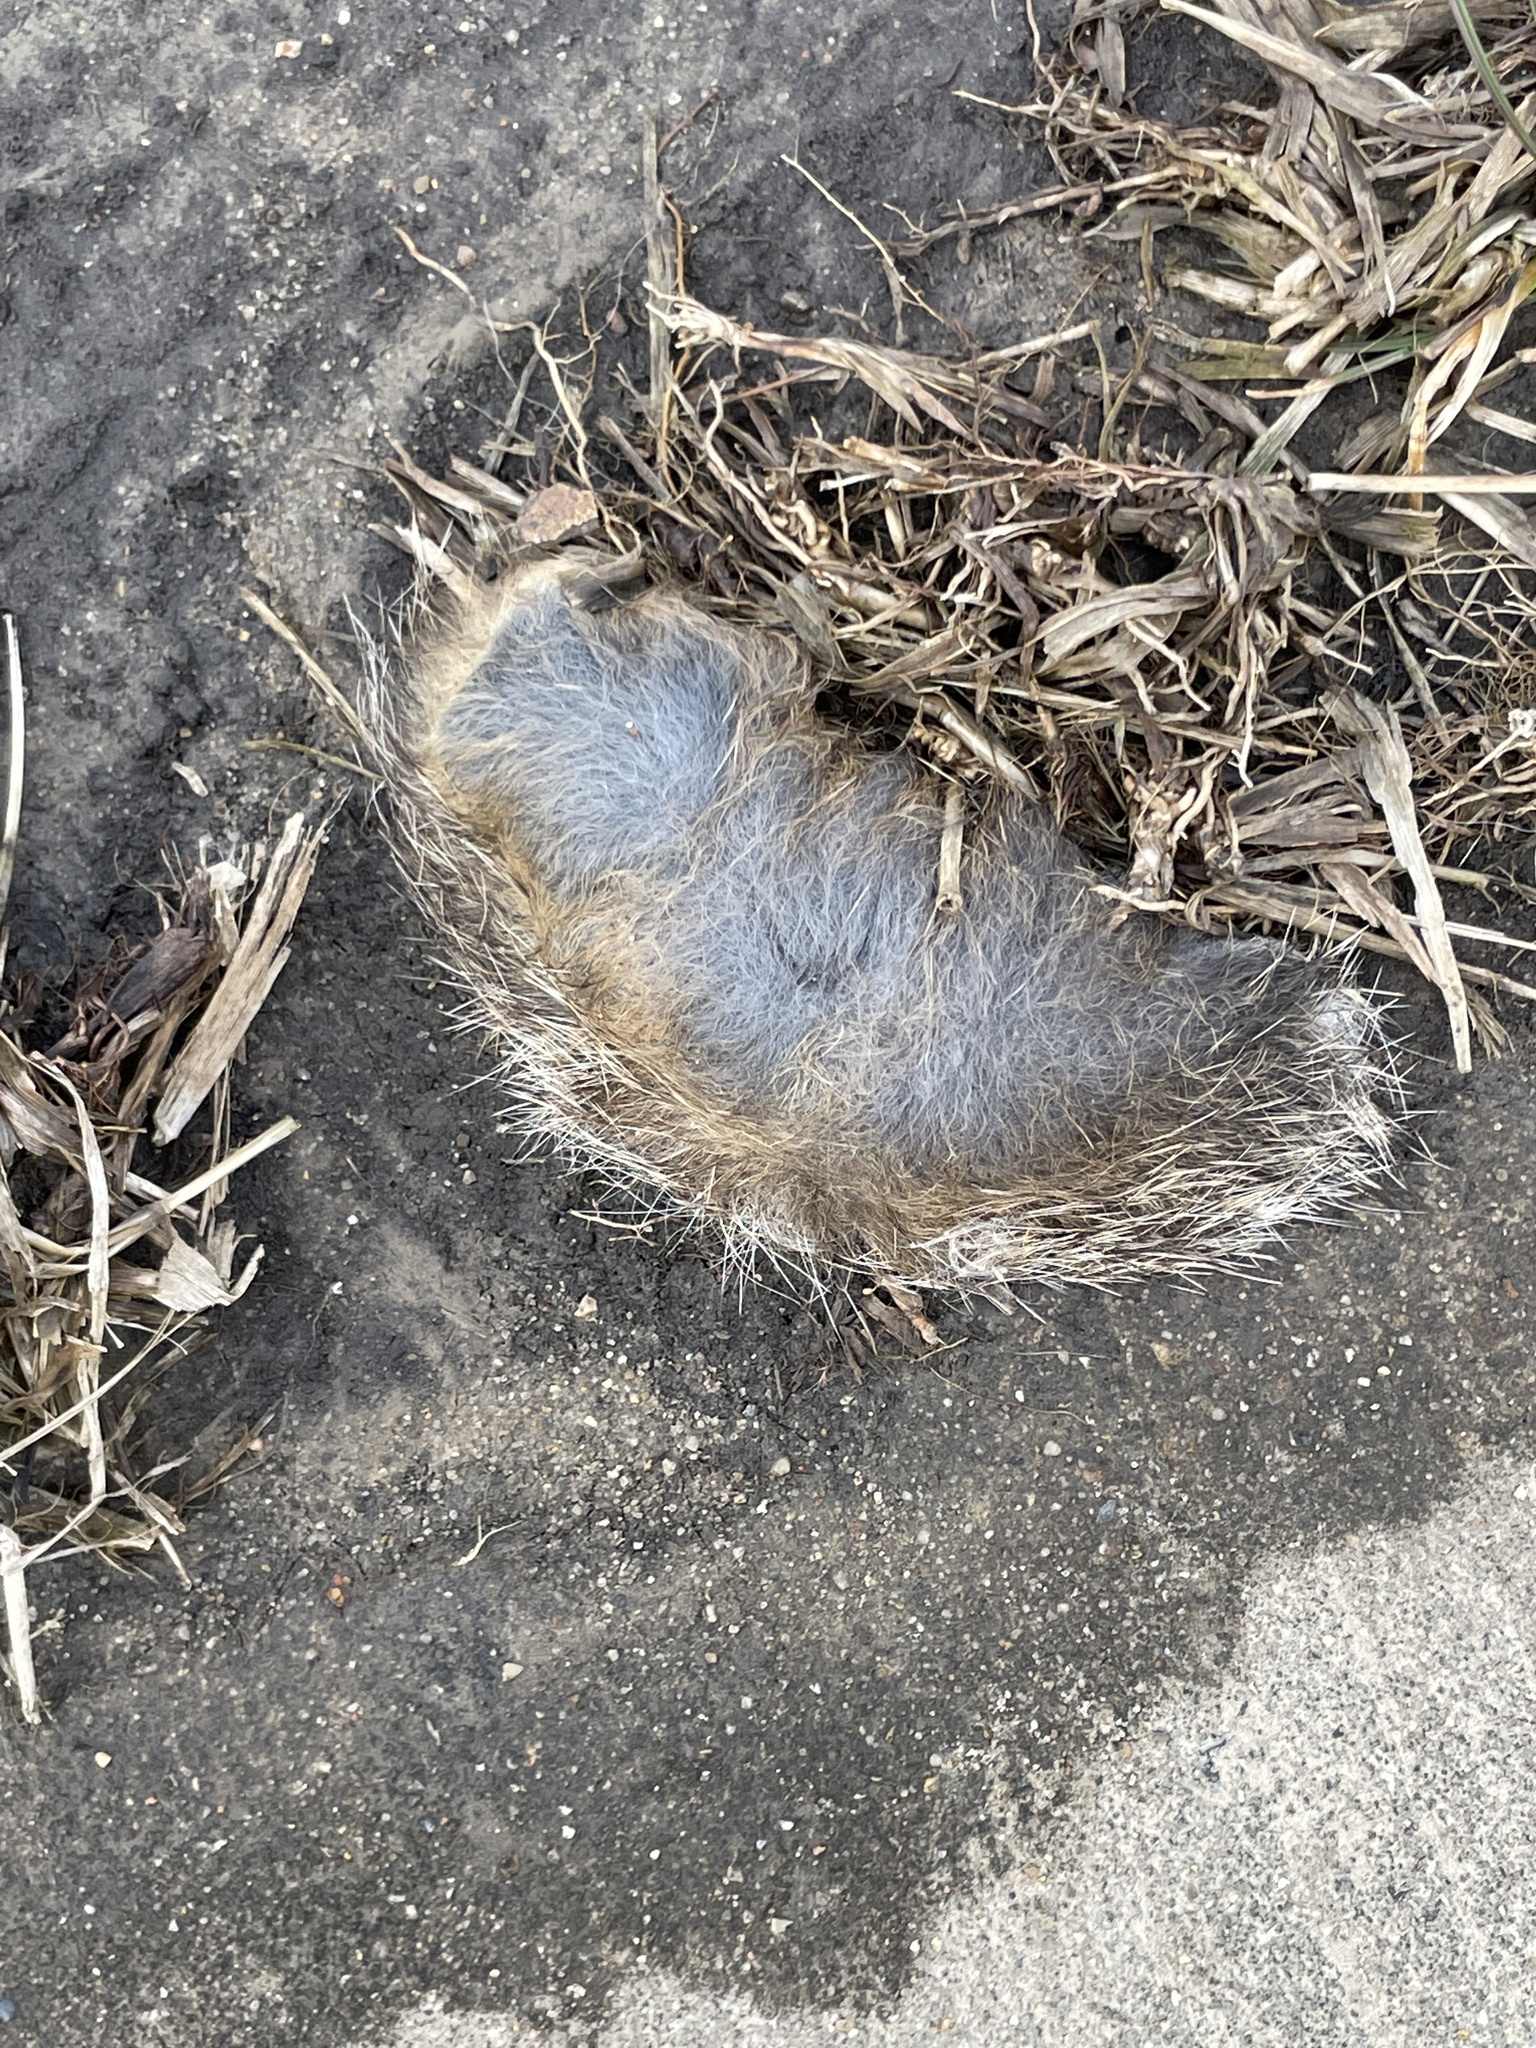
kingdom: Animalia
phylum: Chordata
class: Mammalia
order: Lagomorpha
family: Leporidae
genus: Sylvilagus
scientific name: Sylvilagus floridanus
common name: Eastern cottontail
